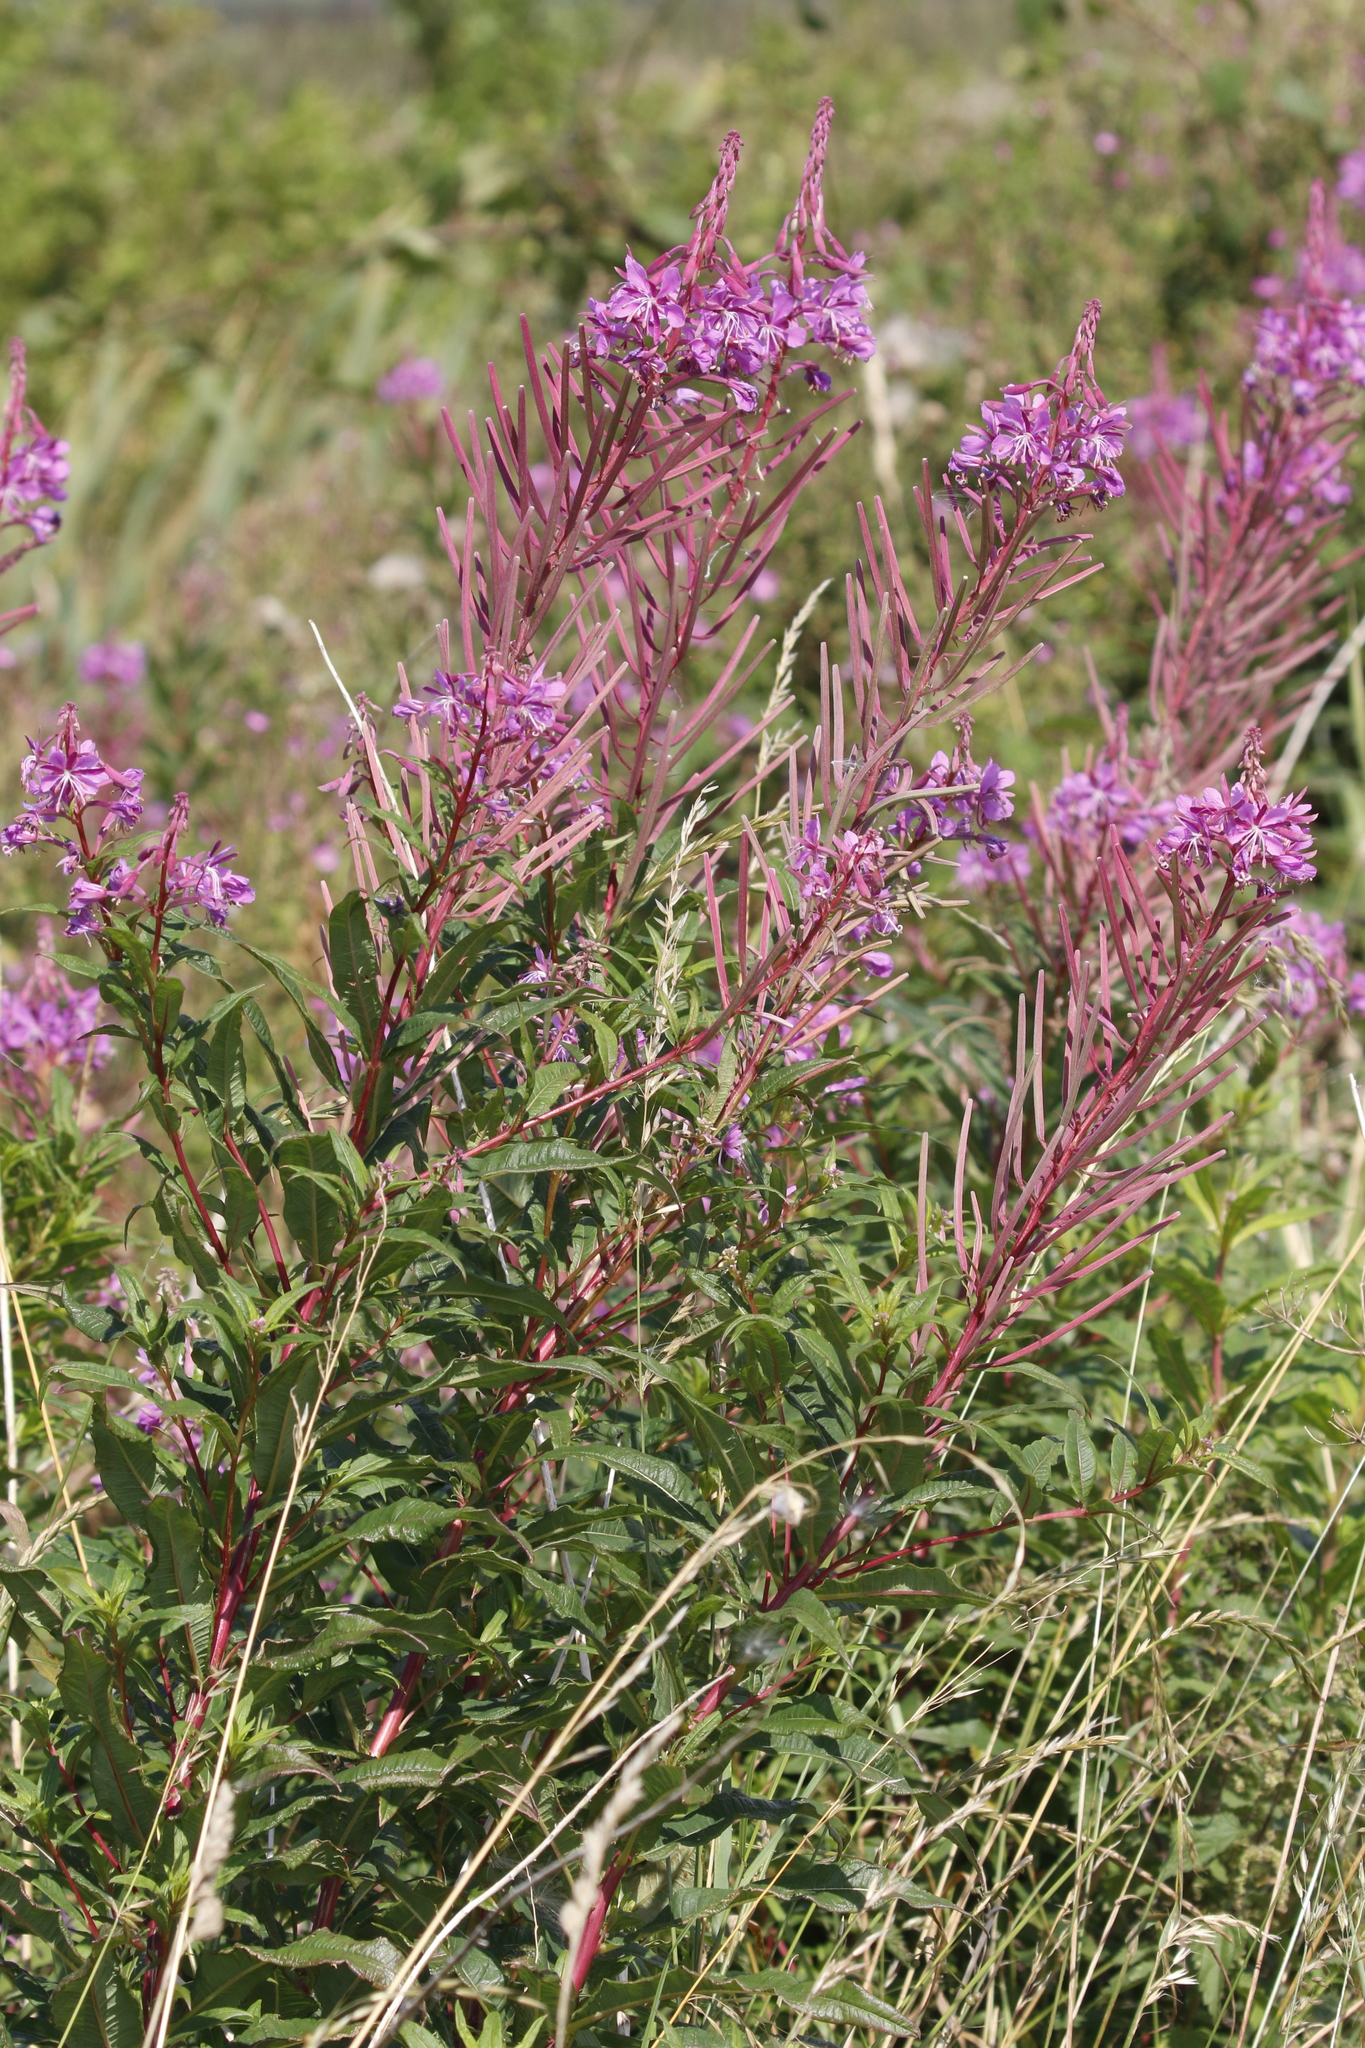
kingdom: Plantae
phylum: Tracheophyta
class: Magnoliopsida
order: Myrtales
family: Onagraceae
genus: Chamaenerion
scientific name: Chamaenerion angustifolium
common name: Fireweed
